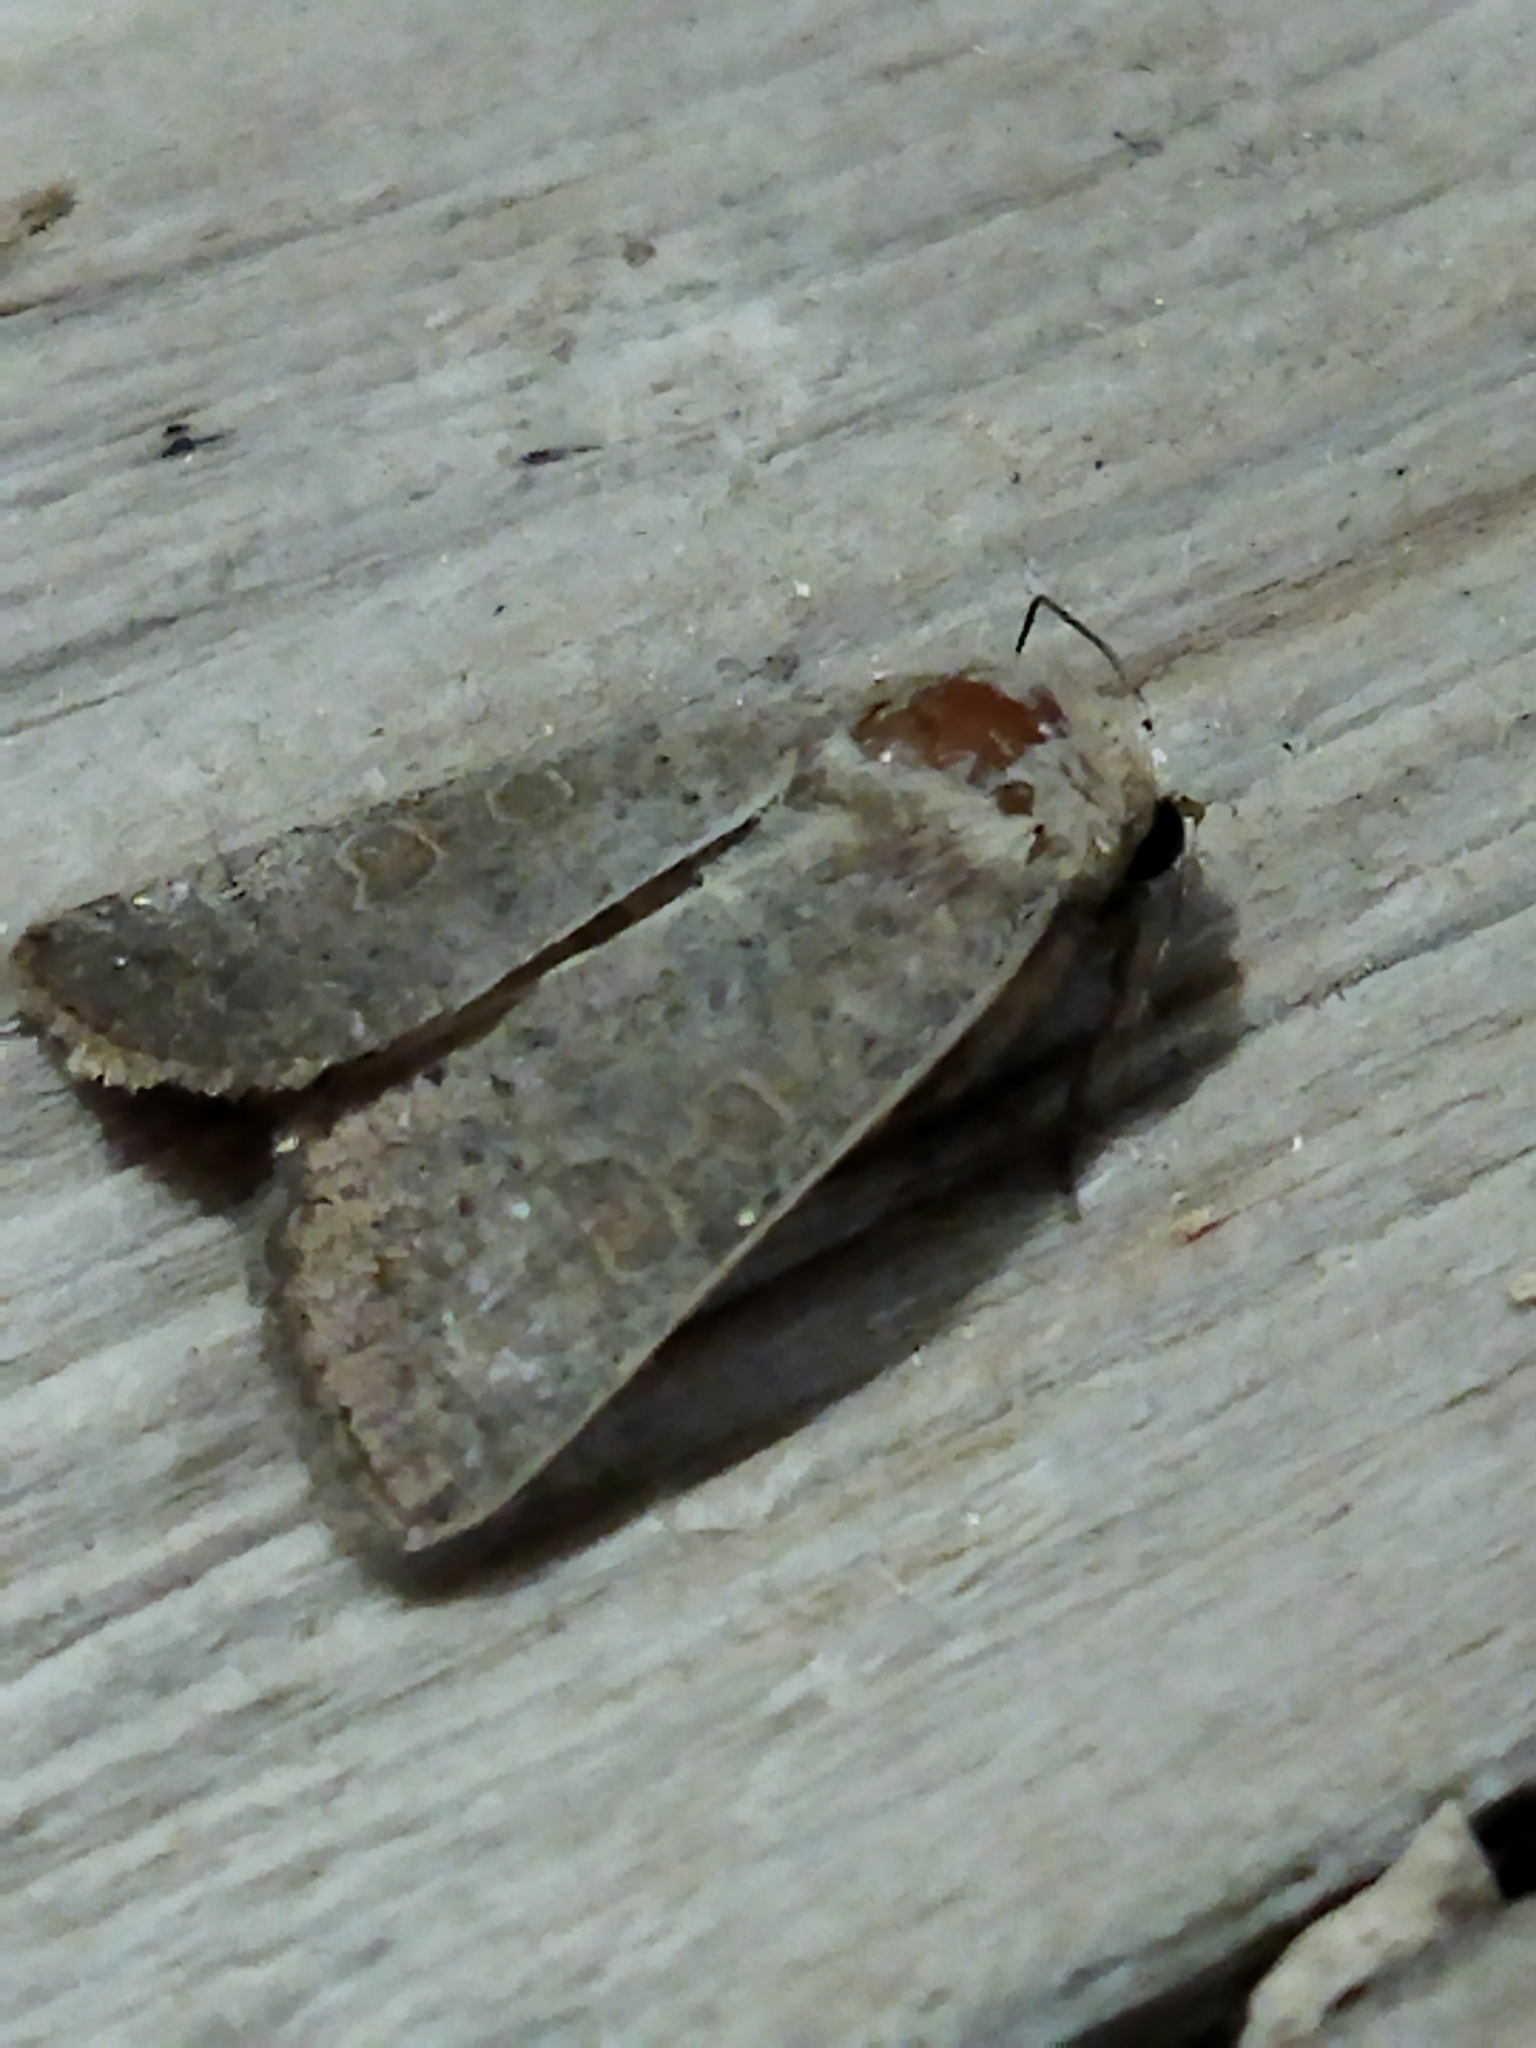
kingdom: Animalia
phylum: Arthropoda
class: Insecta
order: Lepidoptera
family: Noctuidae
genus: Hoplodrina
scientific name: Hoplodrina ambigua
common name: Vine's rustic
